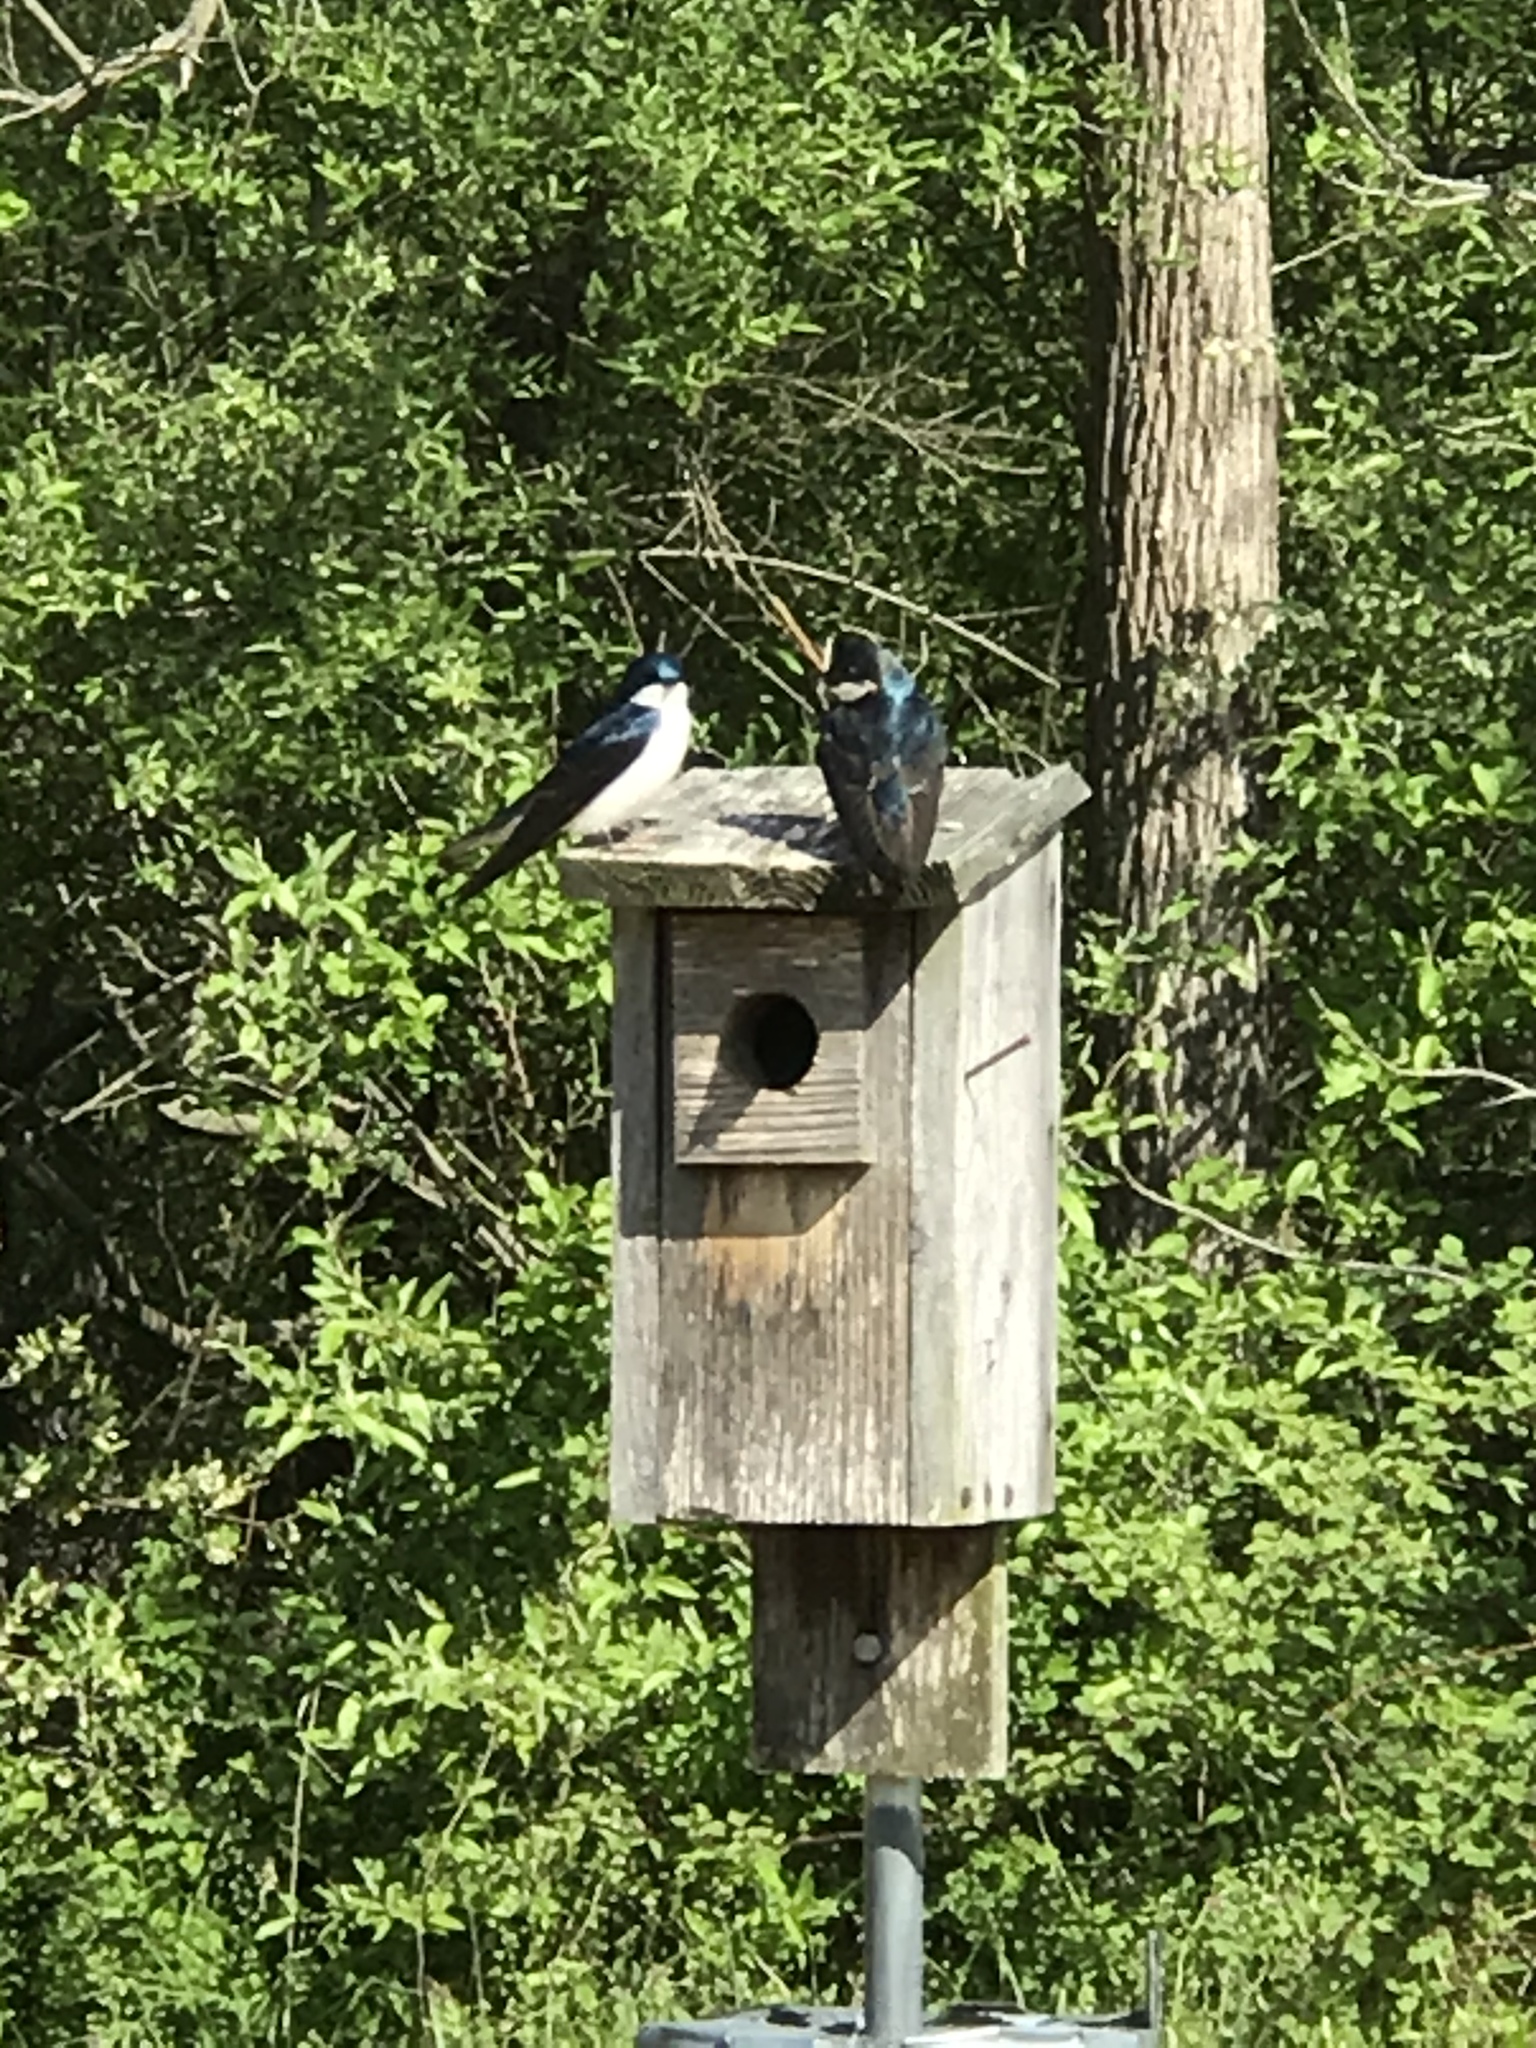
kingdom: Animalia
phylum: Chordata
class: Aves
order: Passeriformes
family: Hirundinidae
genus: Tachycineta
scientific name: Tachycineta bicolor
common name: Tree swallow
